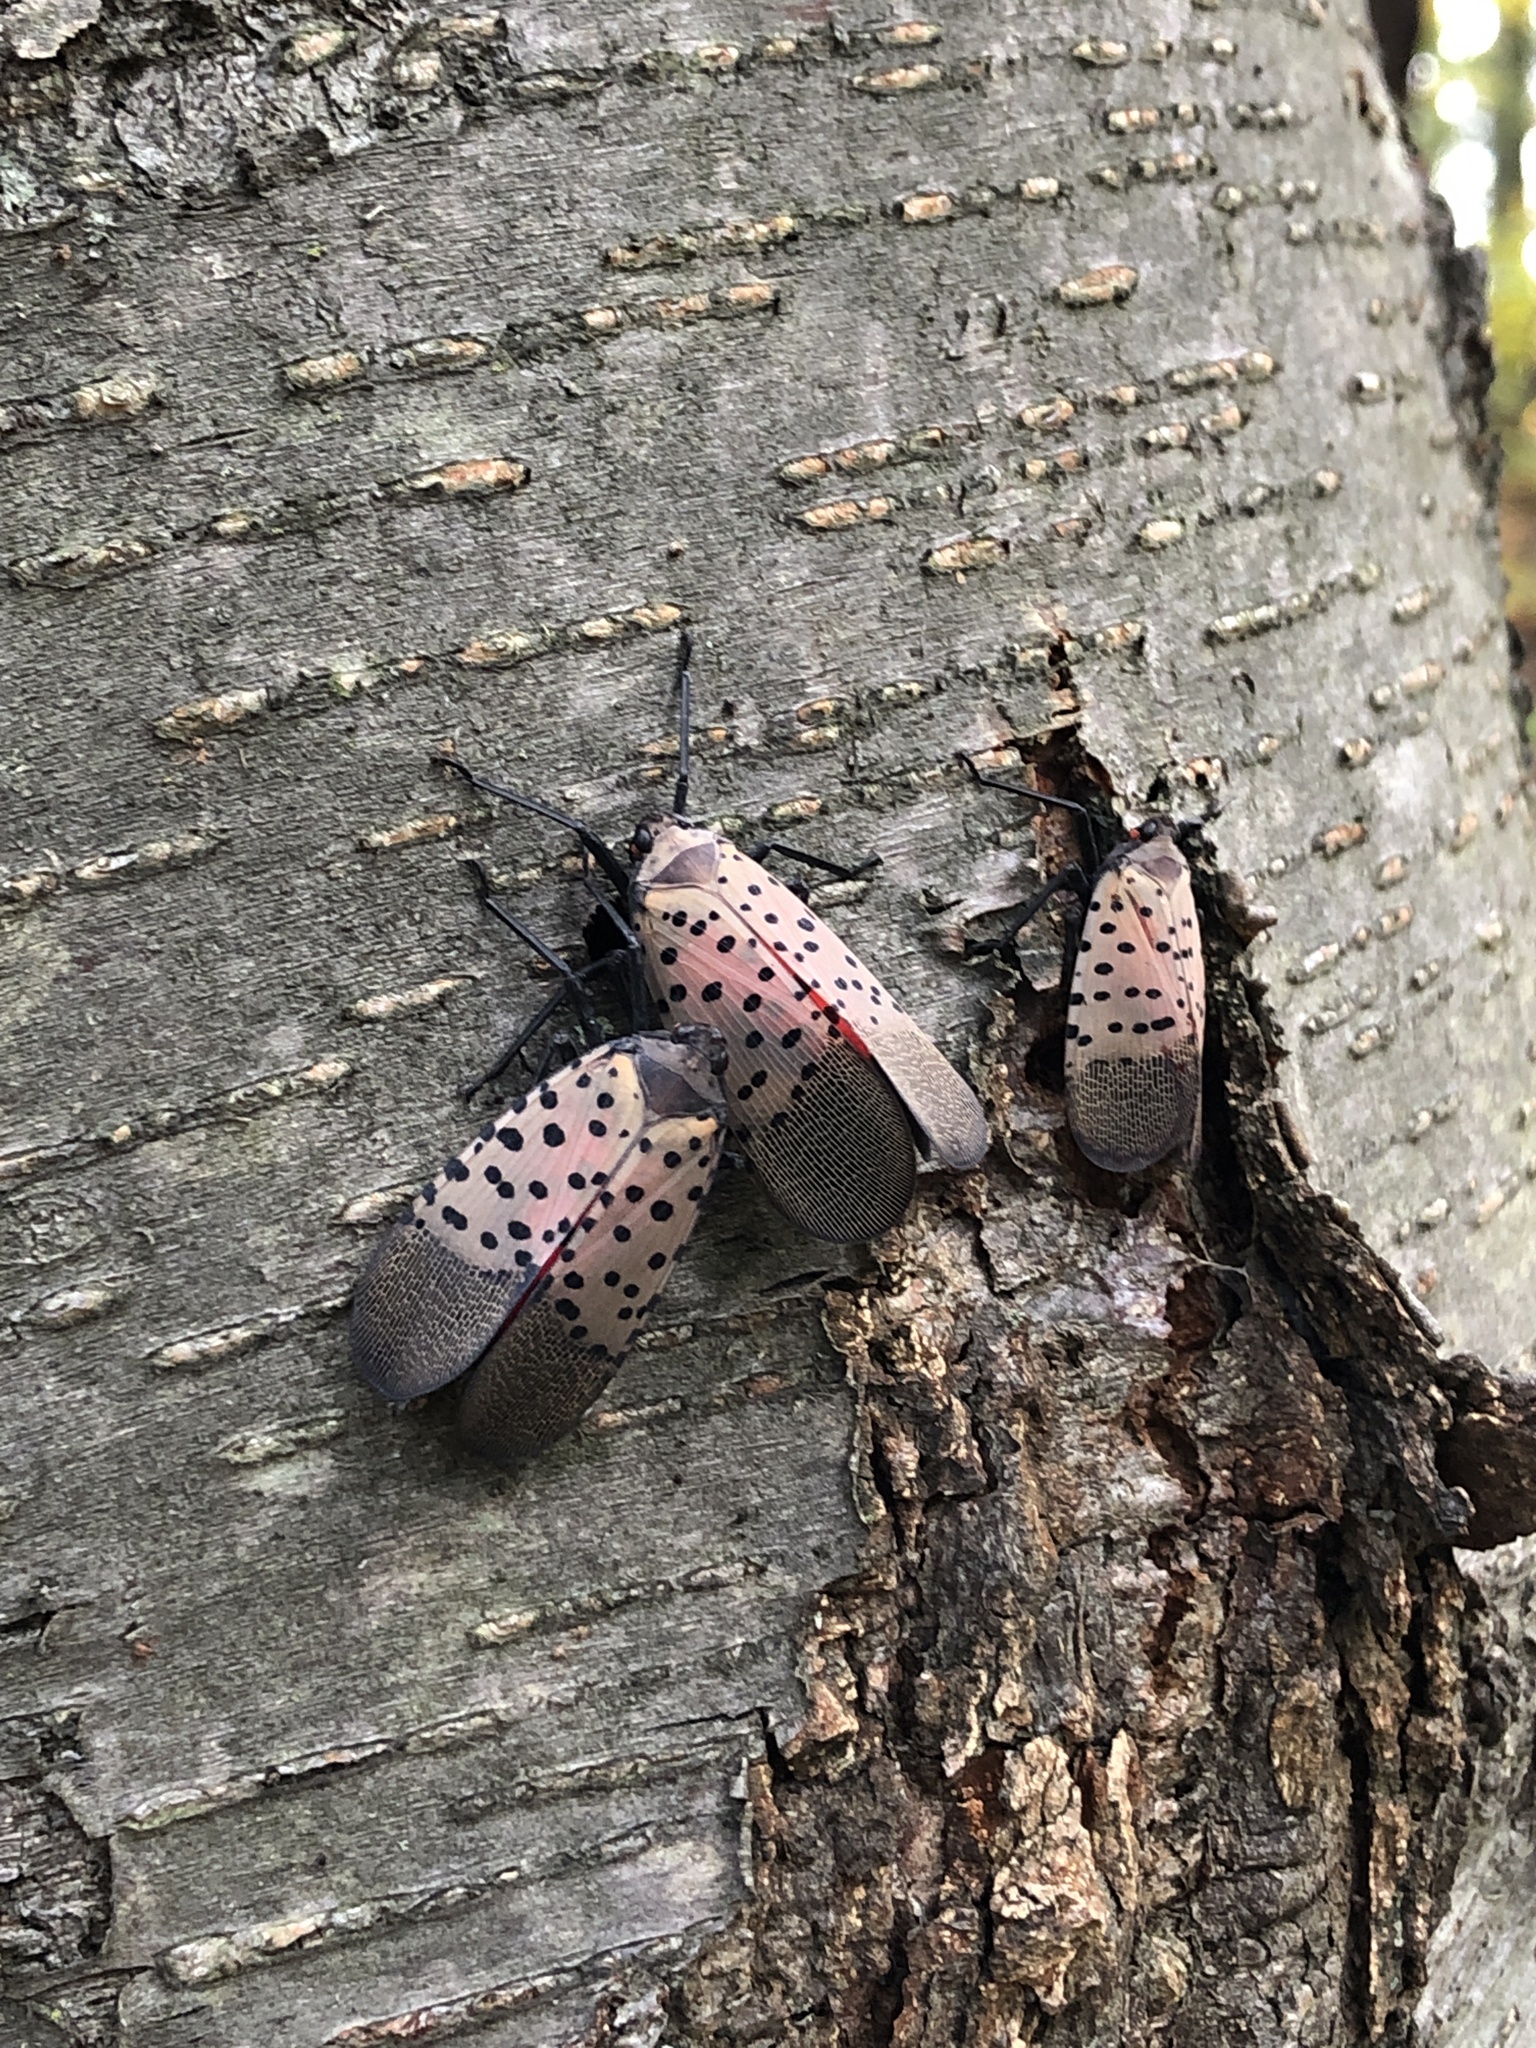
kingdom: Animalia
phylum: Arthropoda
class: Insecta
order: Hemiptera
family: Fulgoridae
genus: Lycorma
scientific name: Lycorma delicatula
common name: Spotted lanternfly
